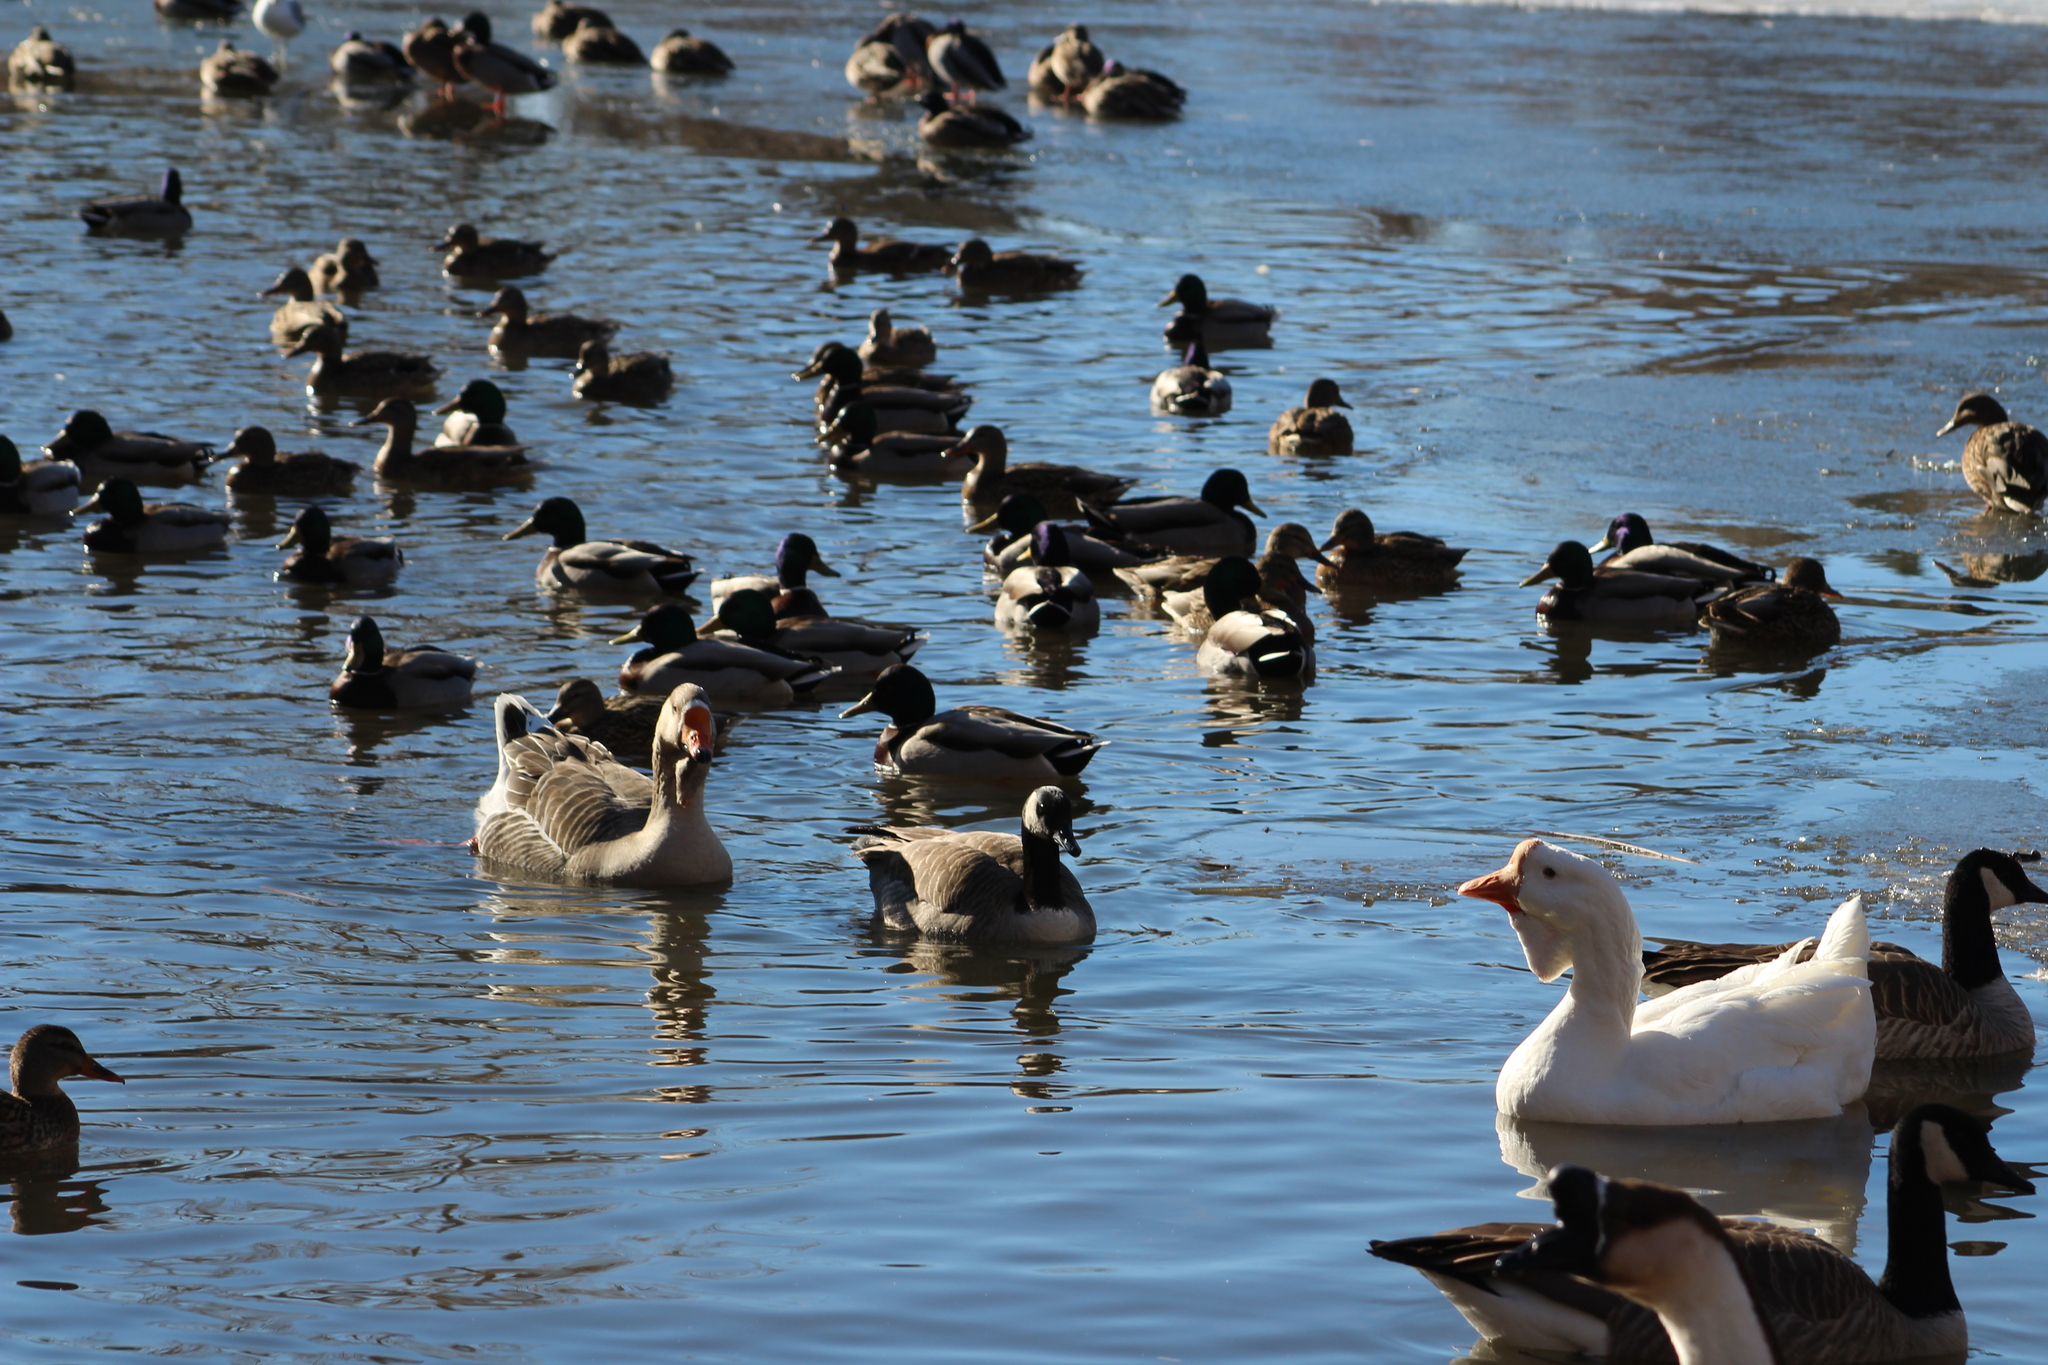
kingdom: Animalia
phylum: Chordata
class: Aves
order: Anseriformes
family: Anatidae
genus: Anser
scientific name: Anser
